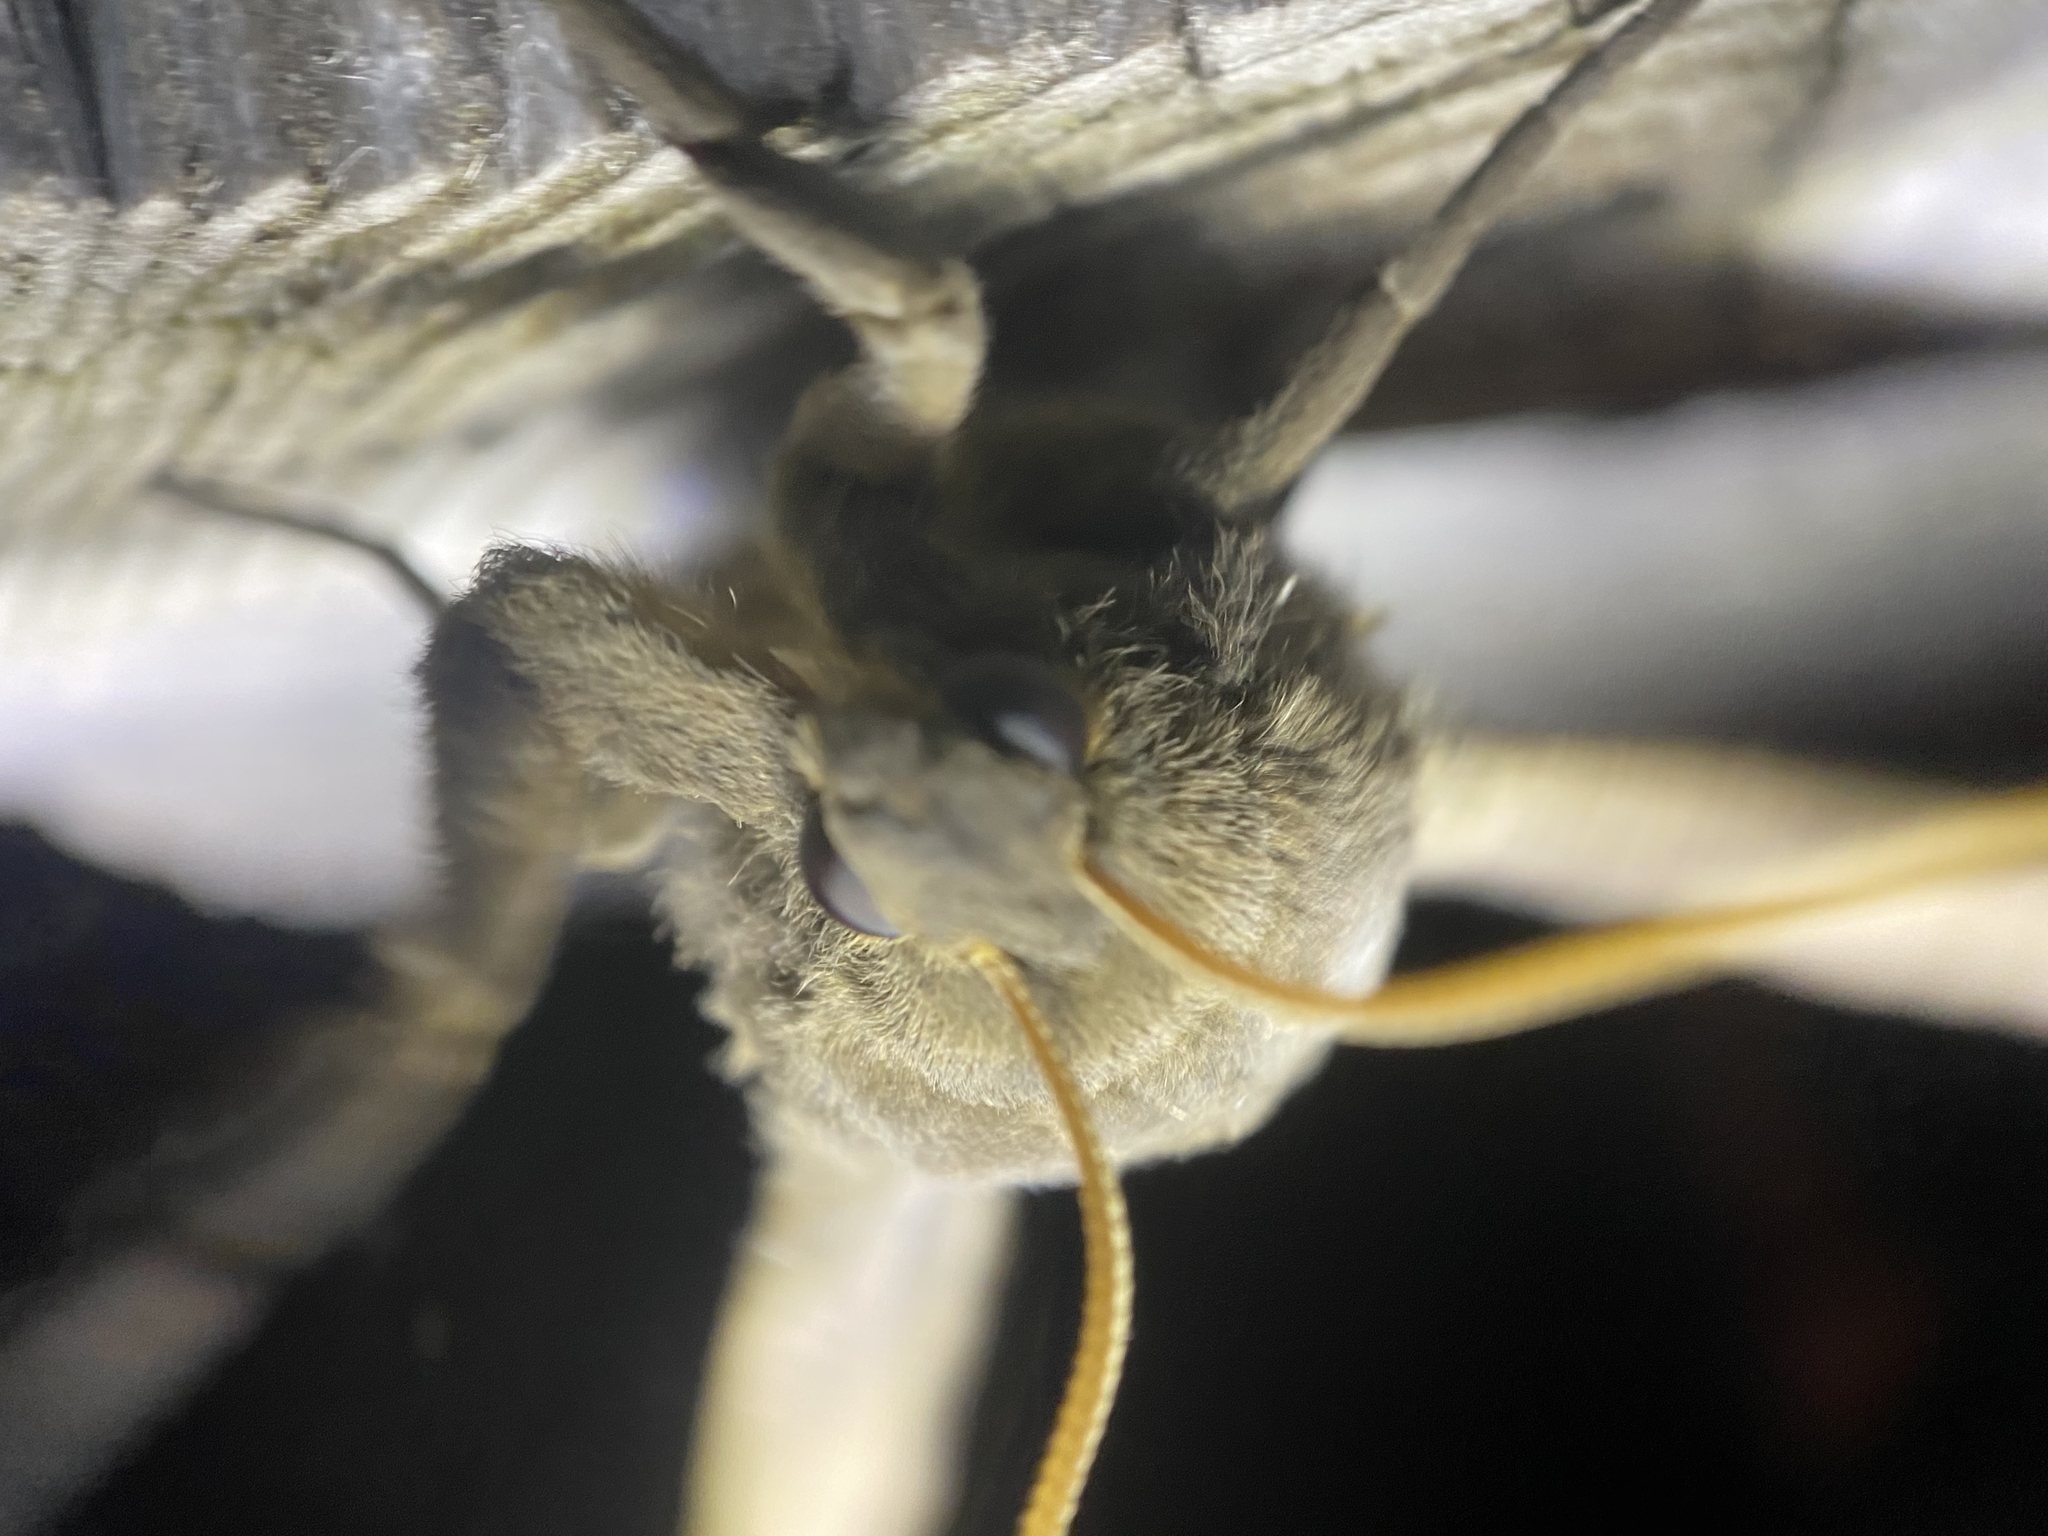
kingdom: Animalia
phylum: Arthropoda
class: Insecta
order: Lepidoptera
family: Lasiocampidae
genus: Phyllodesma
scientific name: Phyllodesma americana
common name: American lappet moth
